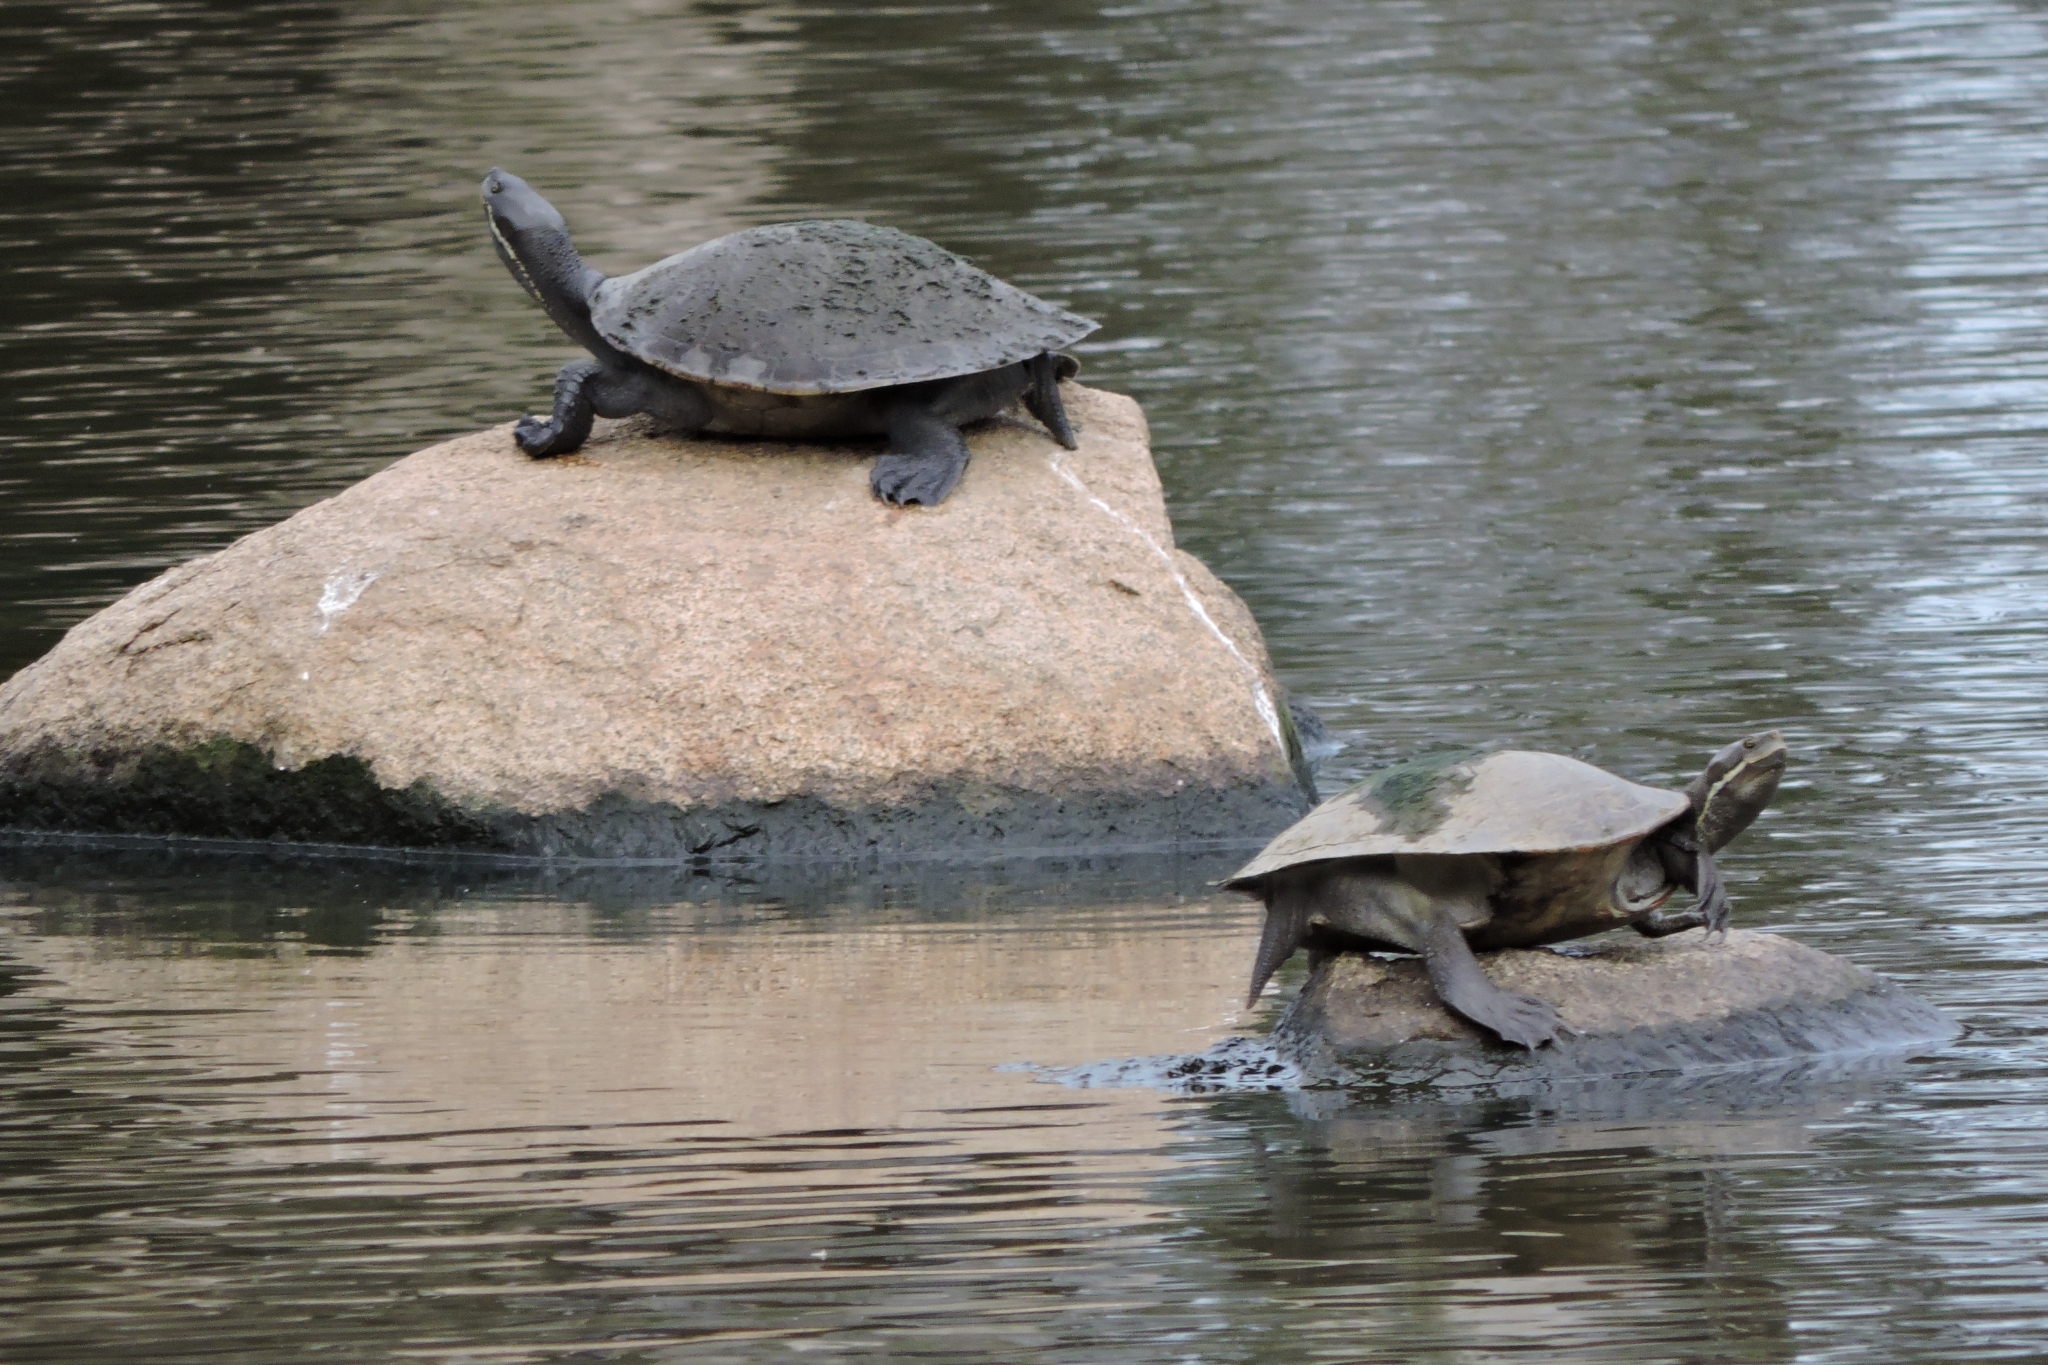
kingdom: Animalia
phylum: Chordata
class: Testudines
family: Chelidae
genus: Emydura
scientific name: Emydura macquarii
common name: Murray river turtle
